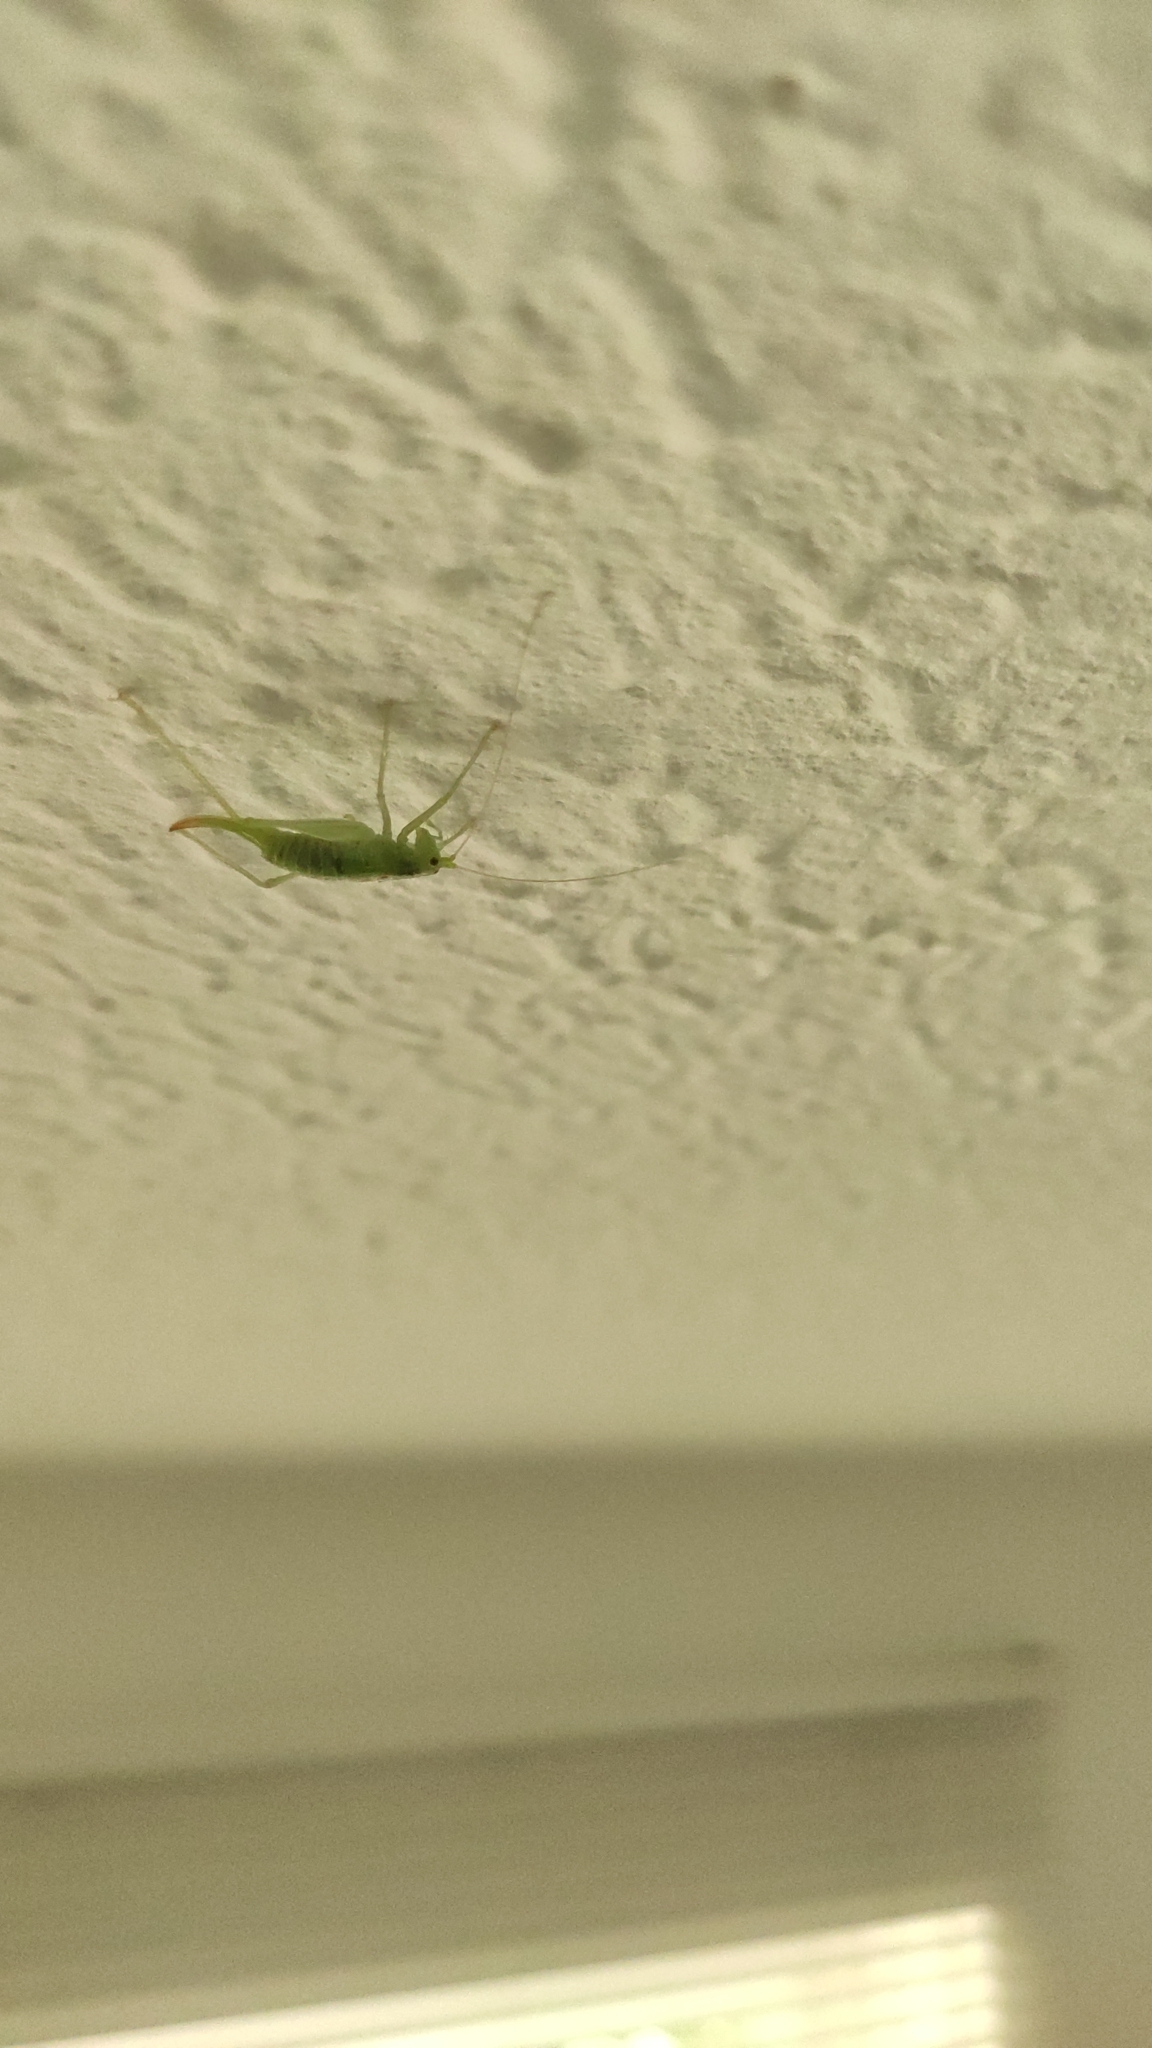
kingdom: Animalia
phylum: Arthropoda
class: Insecta
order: Orthoptera
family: Tettigoniidae
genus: Meconema
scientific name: Meconema meridionale
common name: Southern oak bush-cricket
